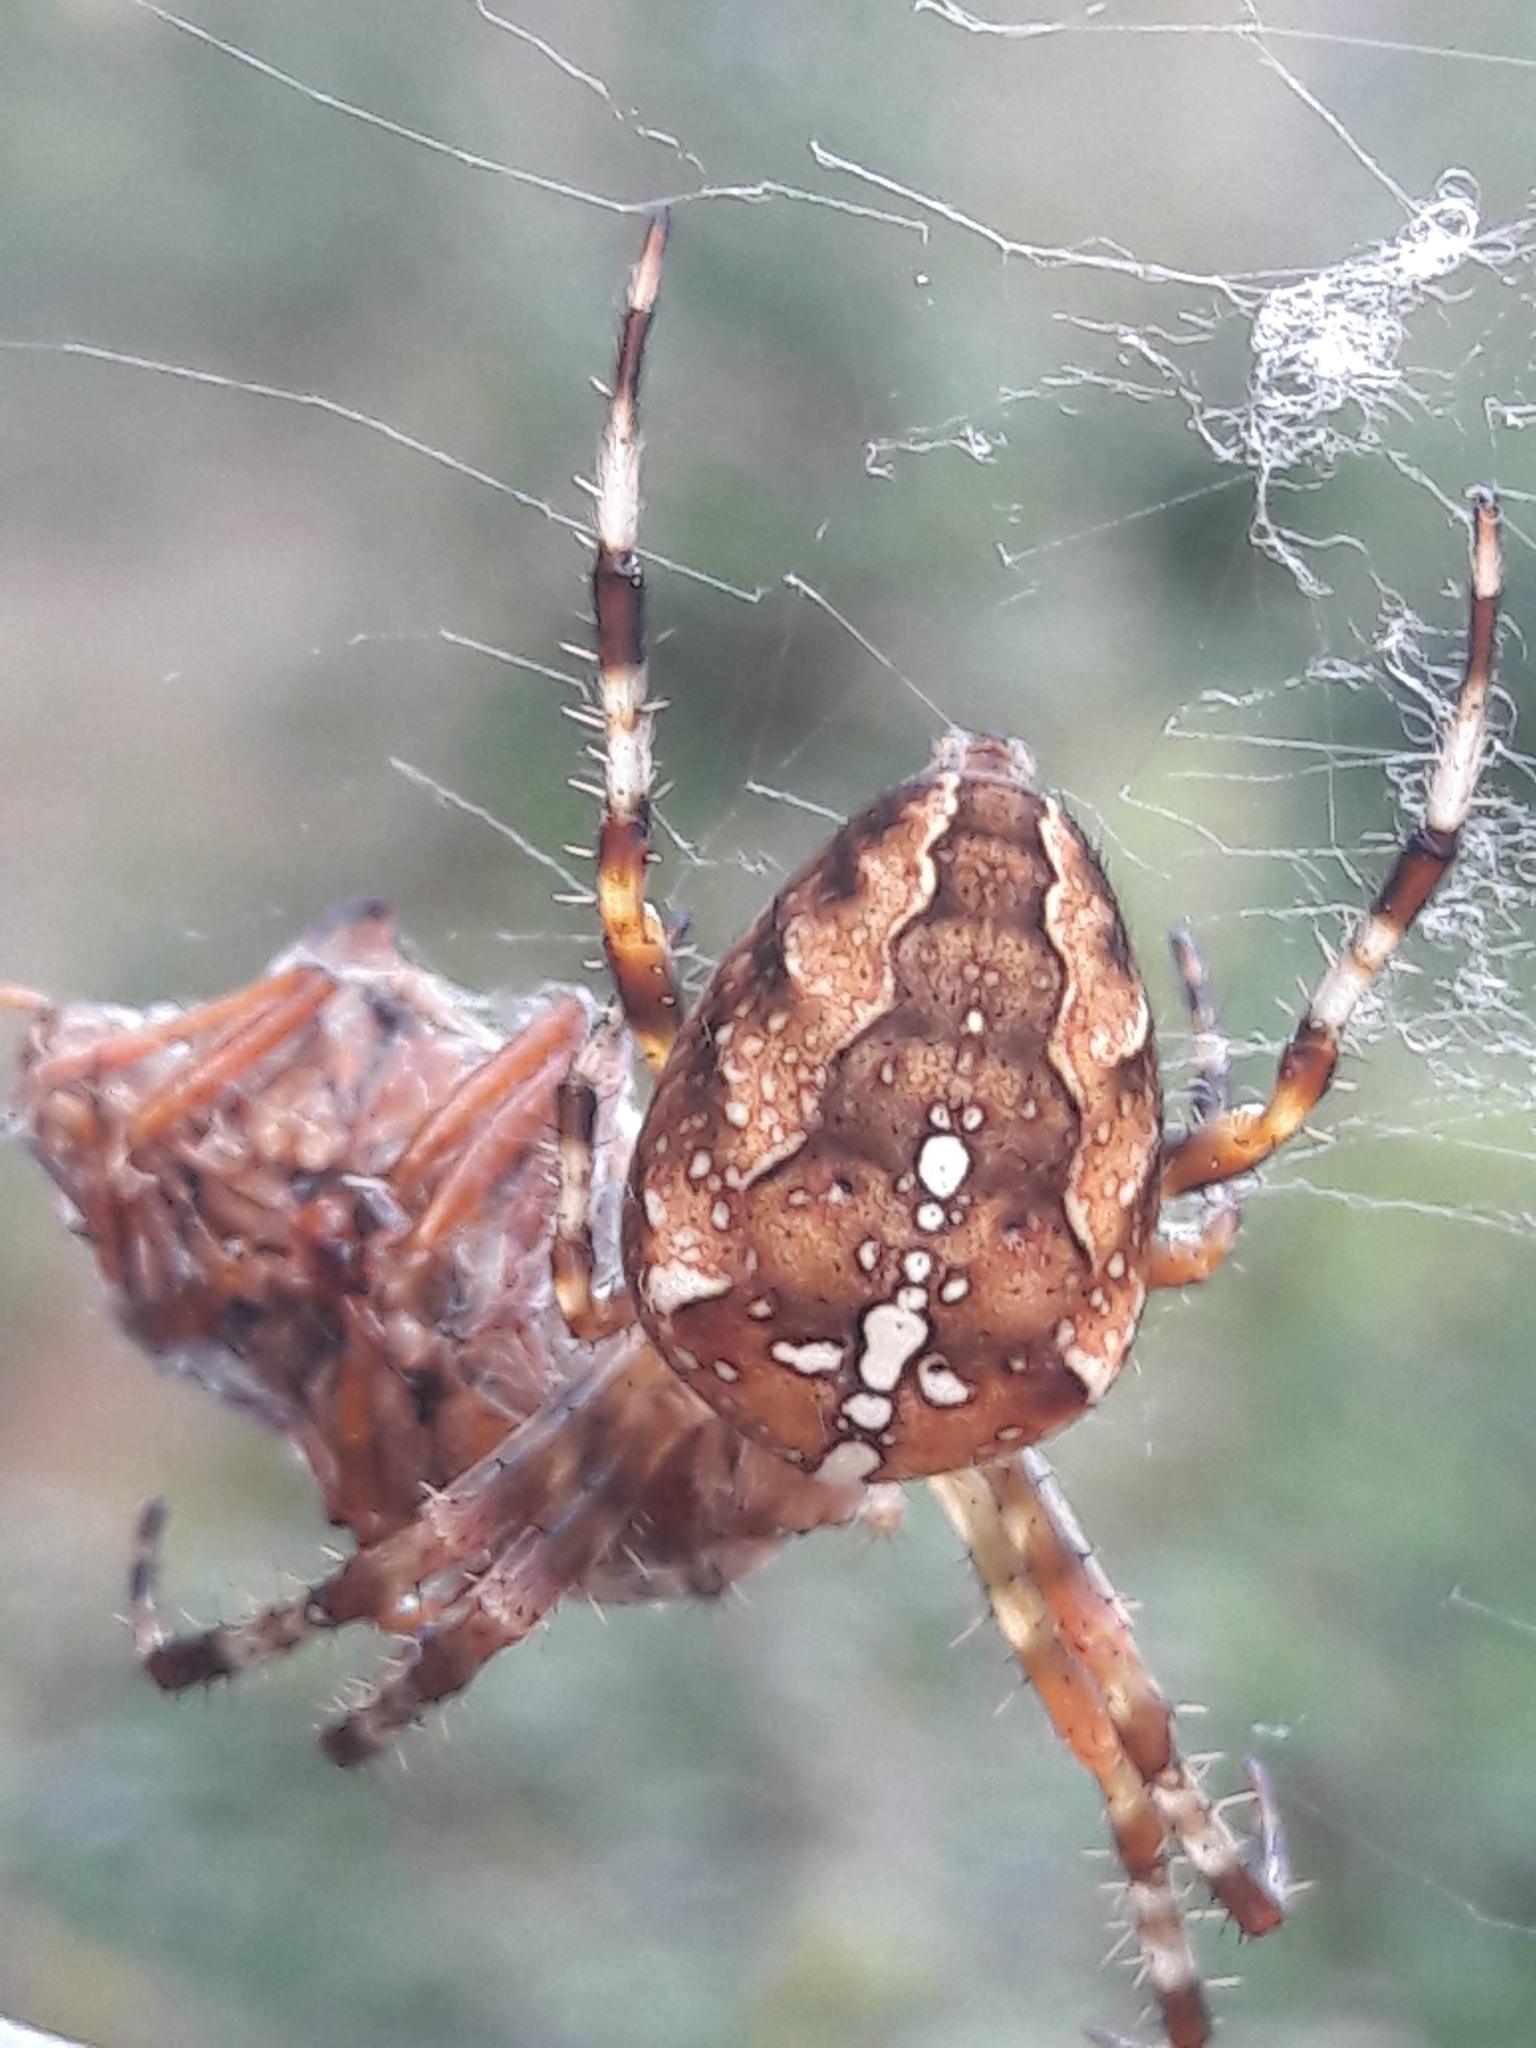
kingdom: Animalia
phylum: Arthropoda
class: Arachnida
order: Araneae
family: Araneidae
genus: Araneus
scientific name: Araneus diadematus
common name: Cross orbweaver
